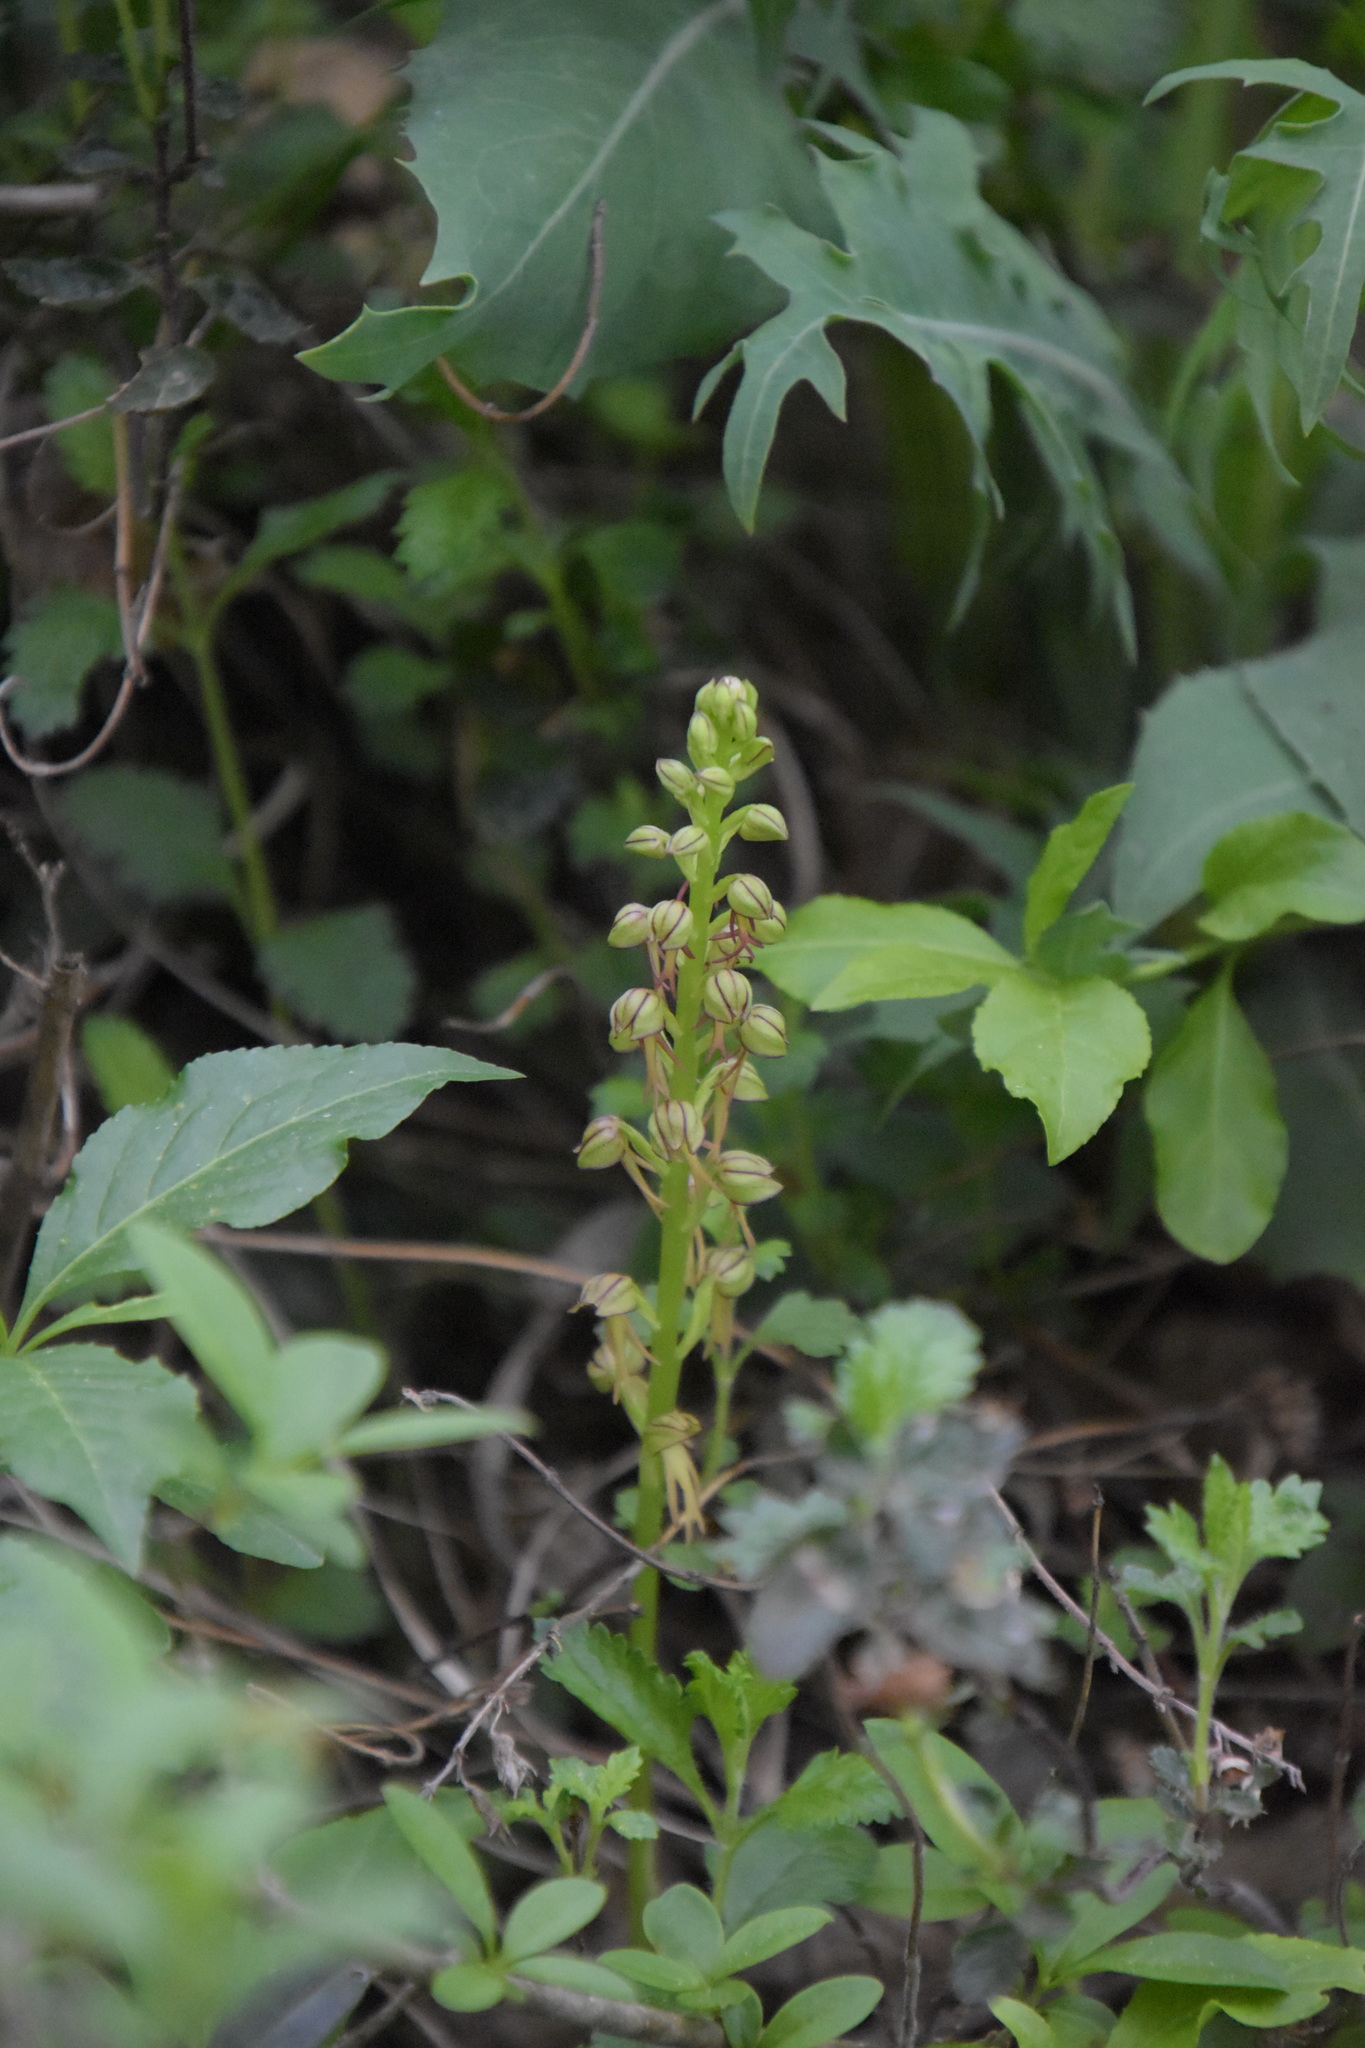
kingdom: Plantae
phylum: Tracheophyta
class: Liliopsida
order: Asparagales
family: Orchidaceae
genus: Orchis
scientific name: Orchis anthropophora
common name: Man orchid
